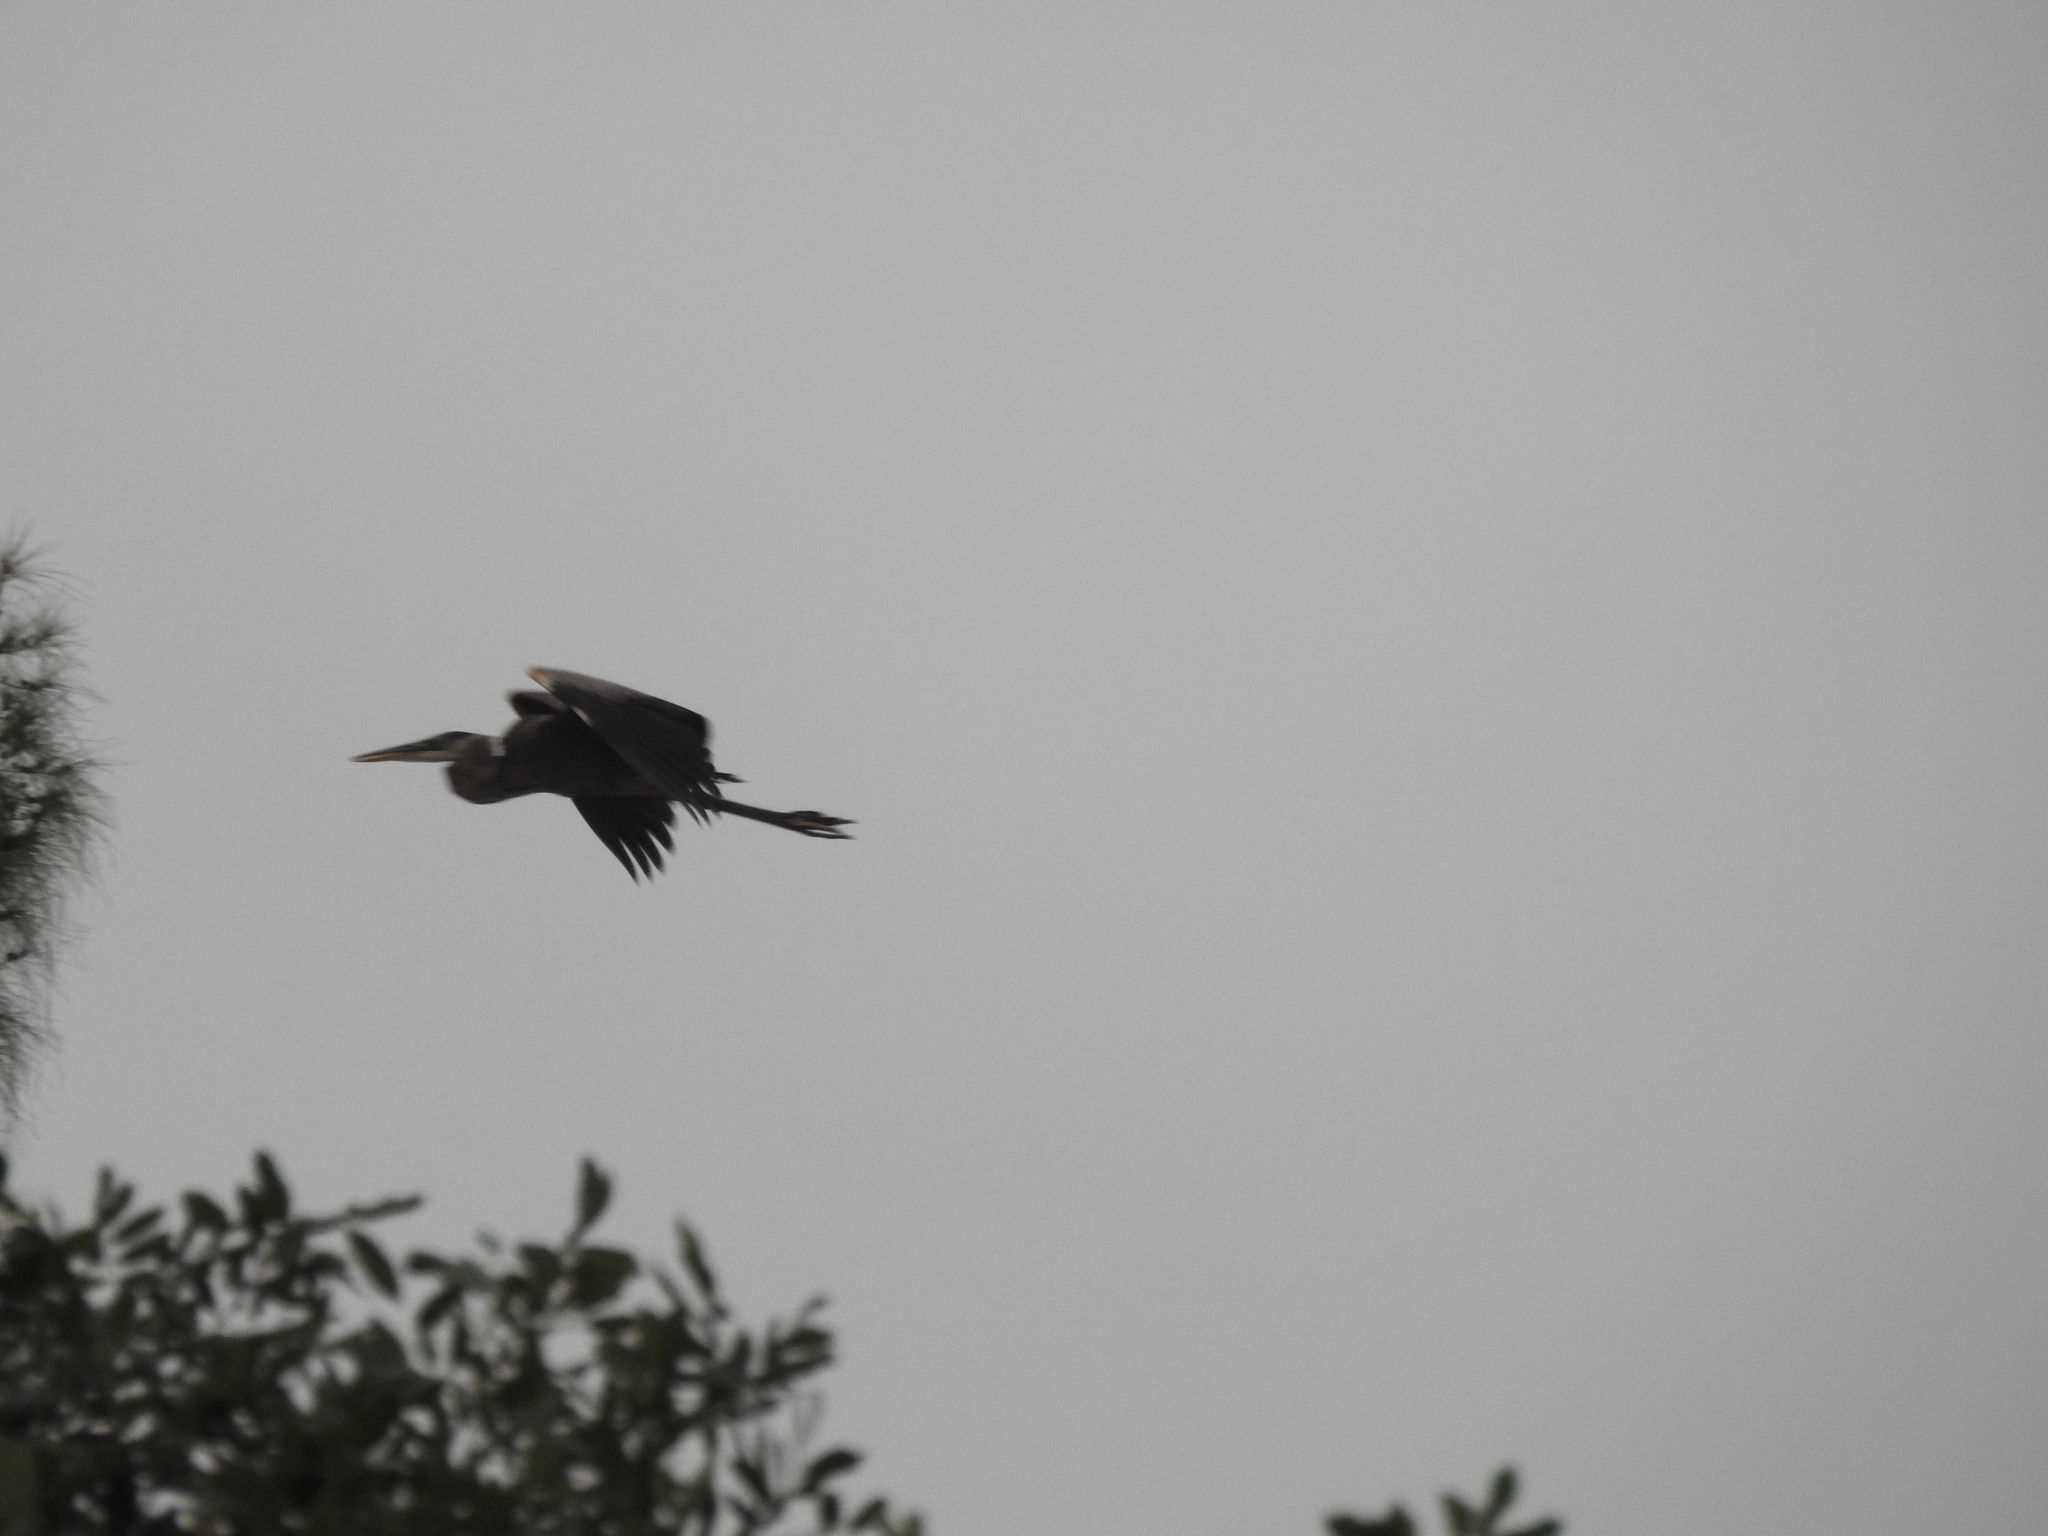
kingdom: Animalia
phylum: Chordata
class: Aves
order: Pelecaniformes
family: Ardeidae
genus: Ardea
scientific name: Ardea herodias
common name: Great blue heron
